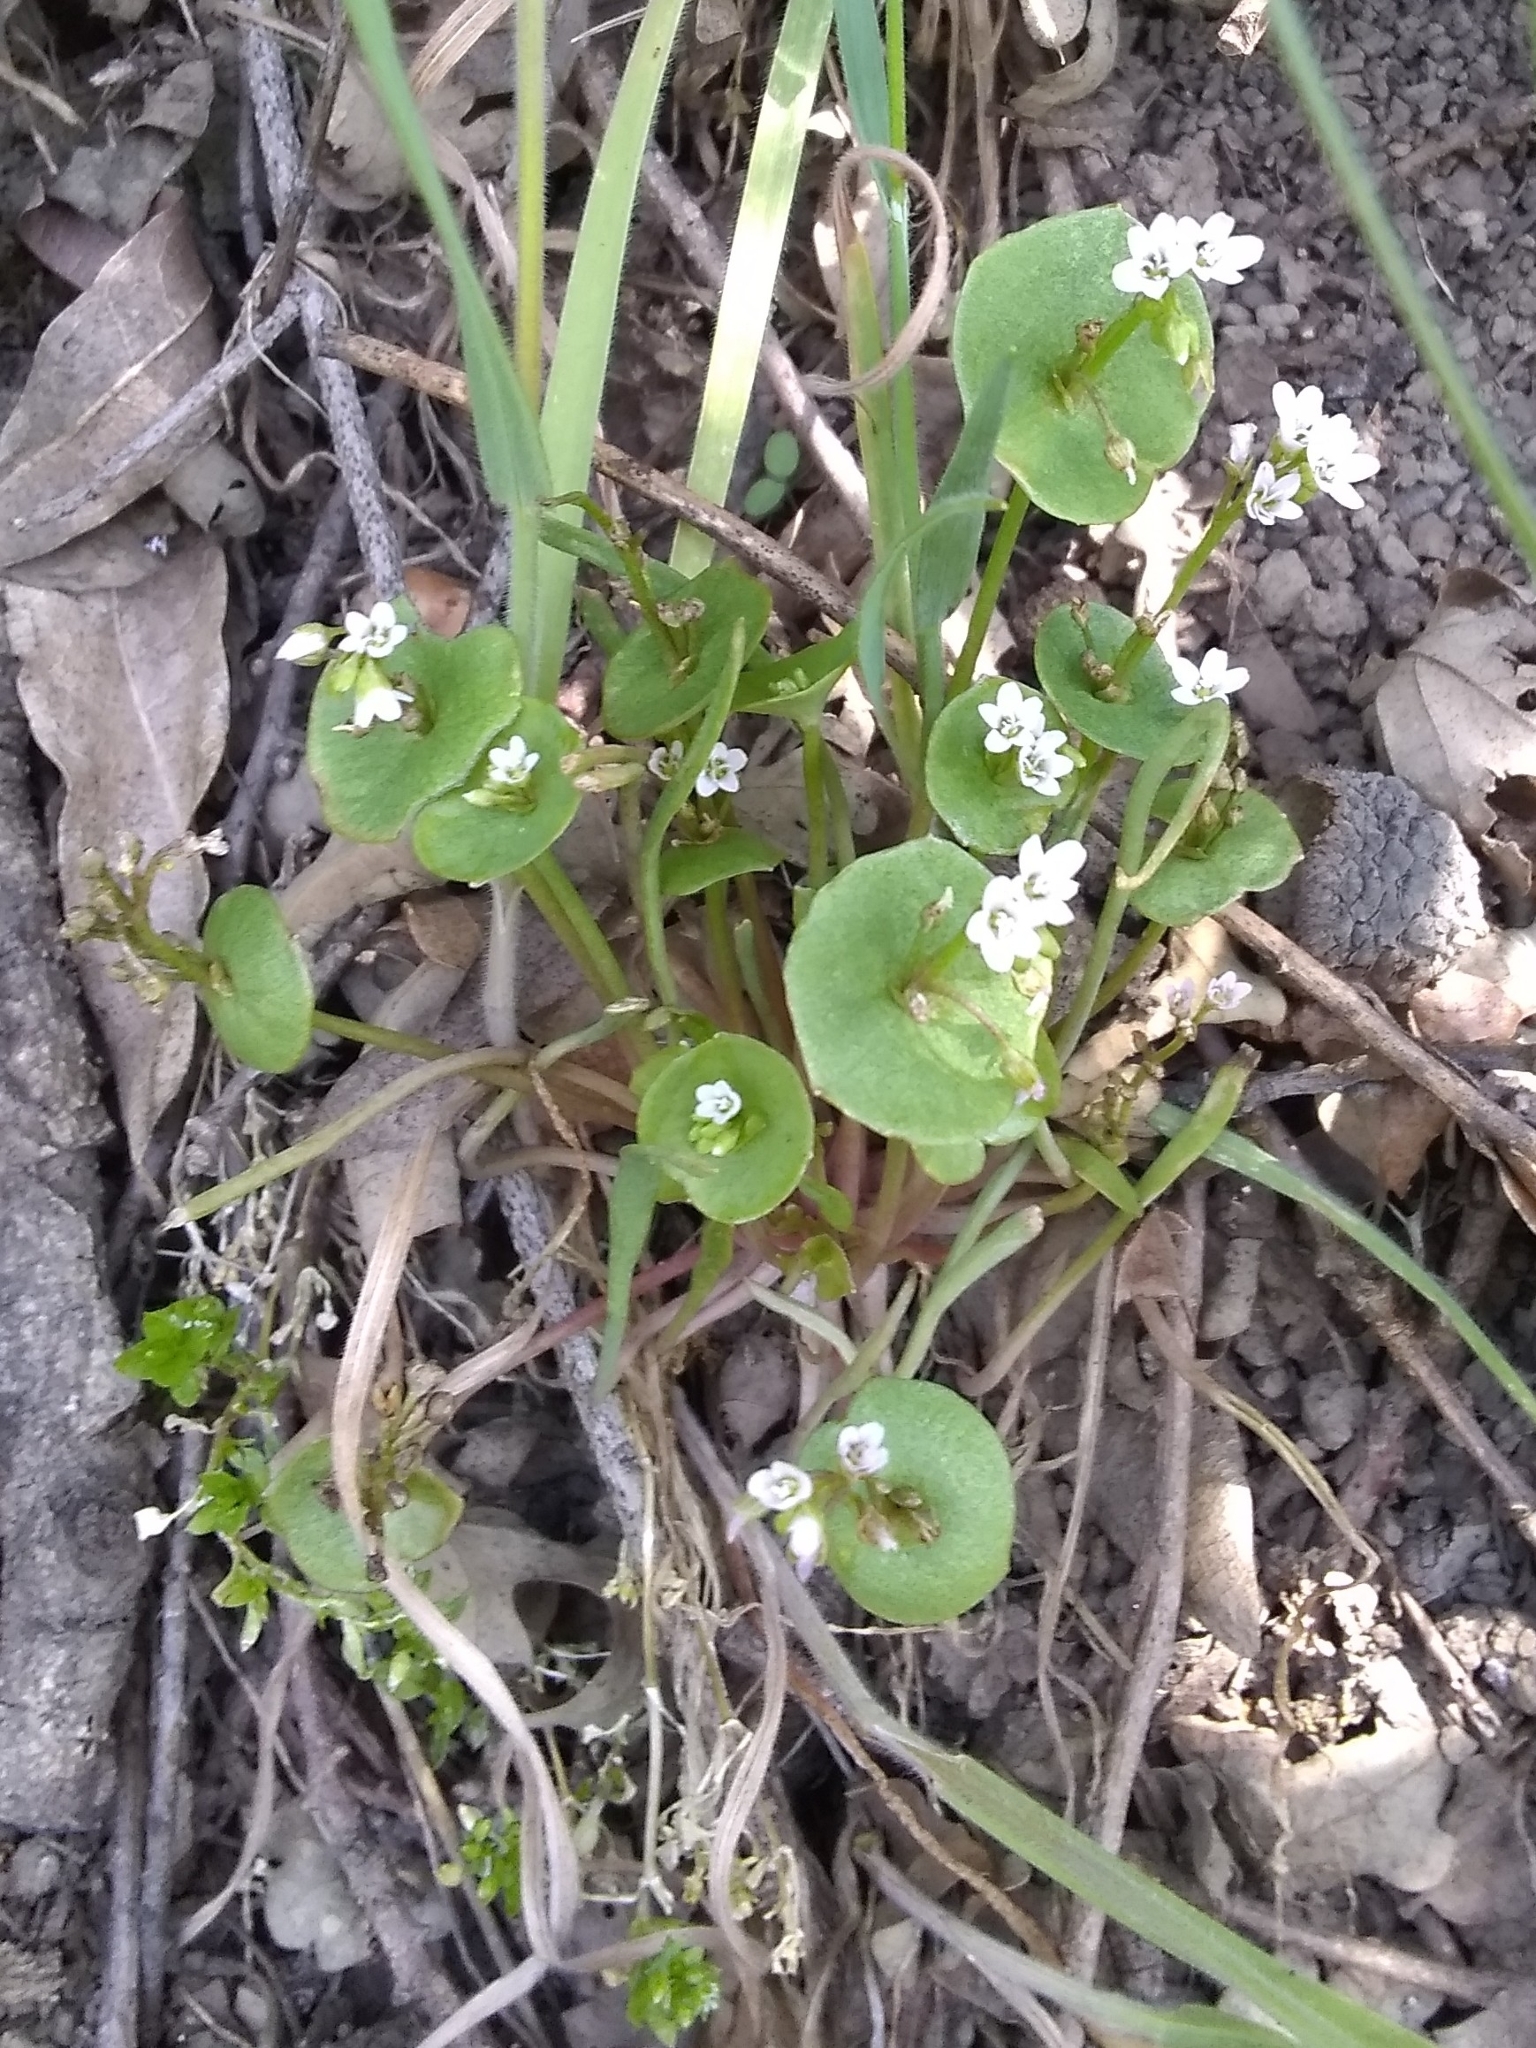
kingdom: Plantae
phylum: Tracheophyta
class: Magnoliopsida
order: Caryophyllales
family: Montiaceae
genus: Claytonia
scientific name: Claytonia perfoliata
